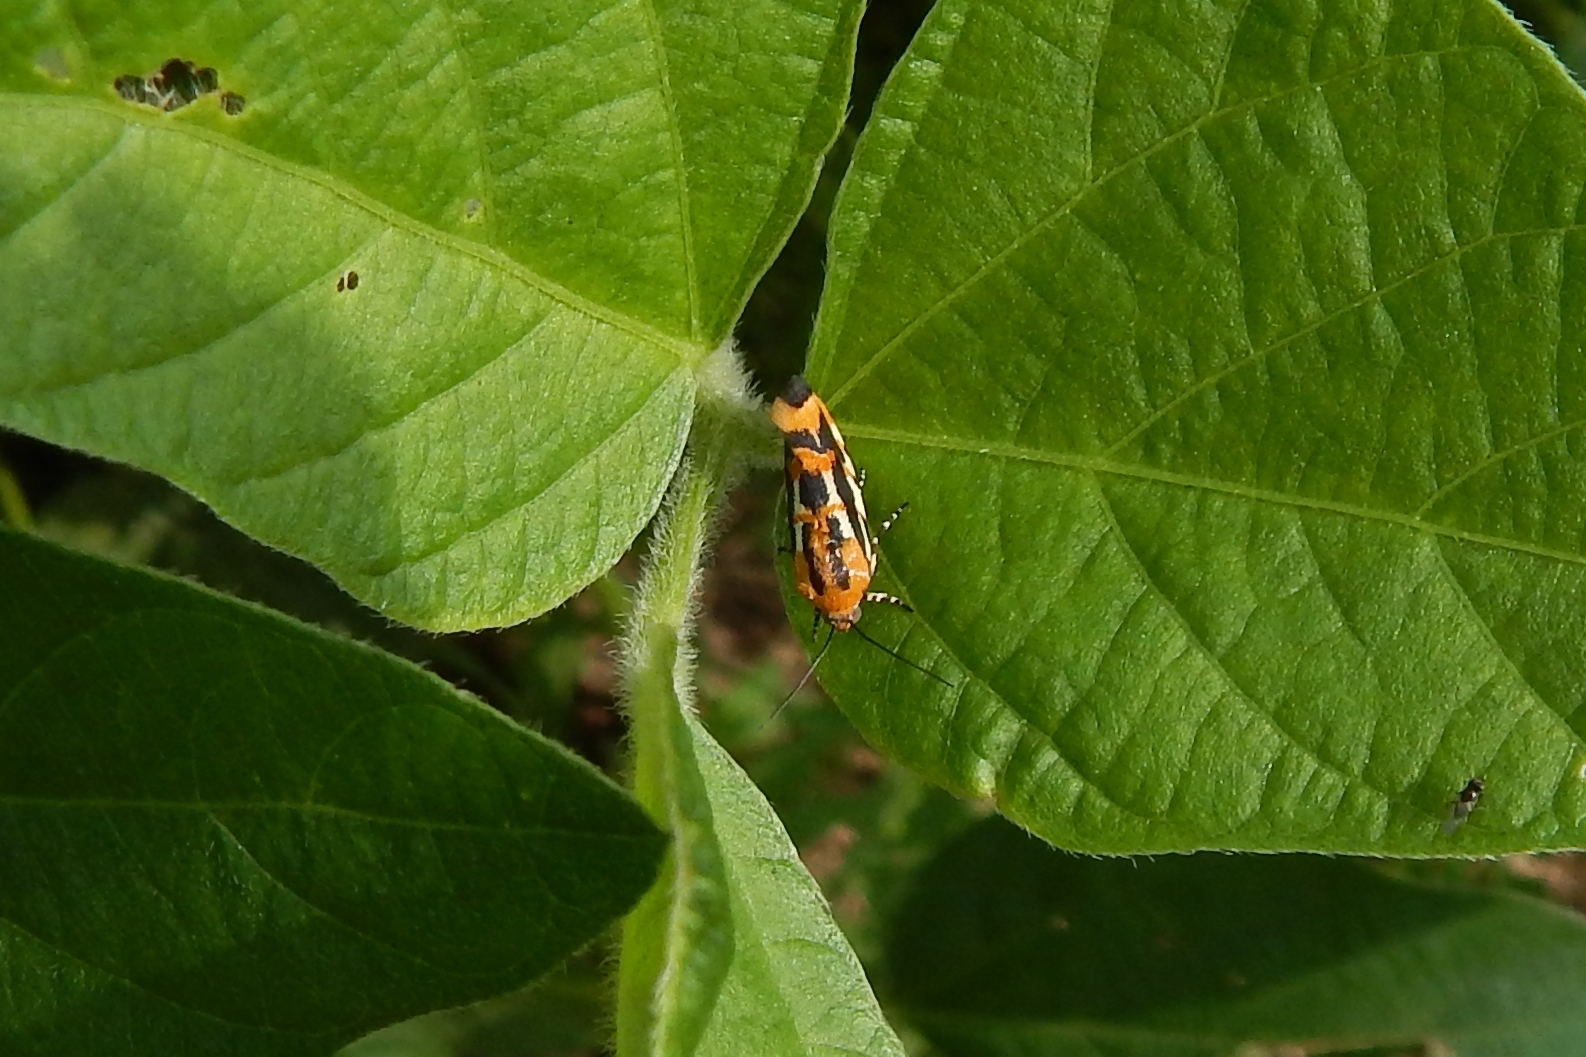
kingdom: Animalia
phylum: Arthropoda
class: Insecta
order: Lepidoptera
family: Noctuidae
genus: Acontia
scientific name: Acontia leo
